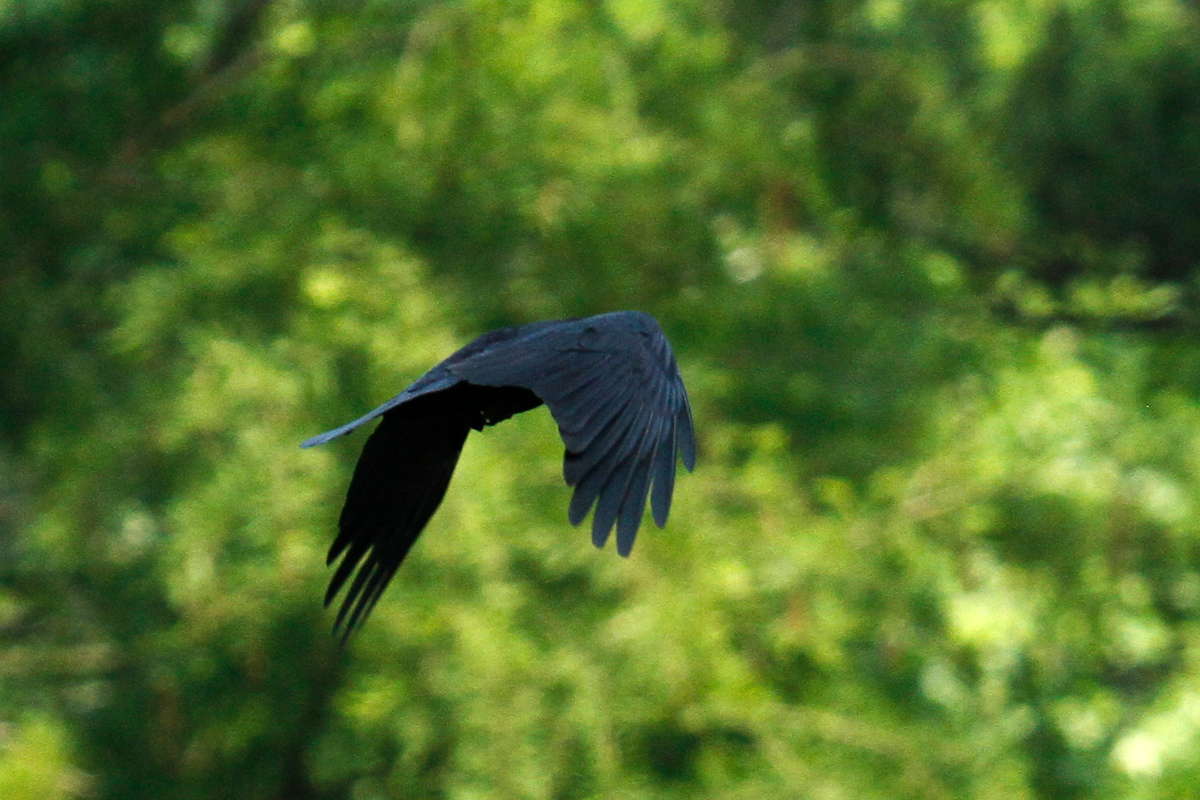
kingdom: Animalia
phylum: Chordata
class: Aves
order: Passeriformes
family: Corvidae
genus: Corvus
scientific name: Corvus ossifragus
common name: Fish crow
